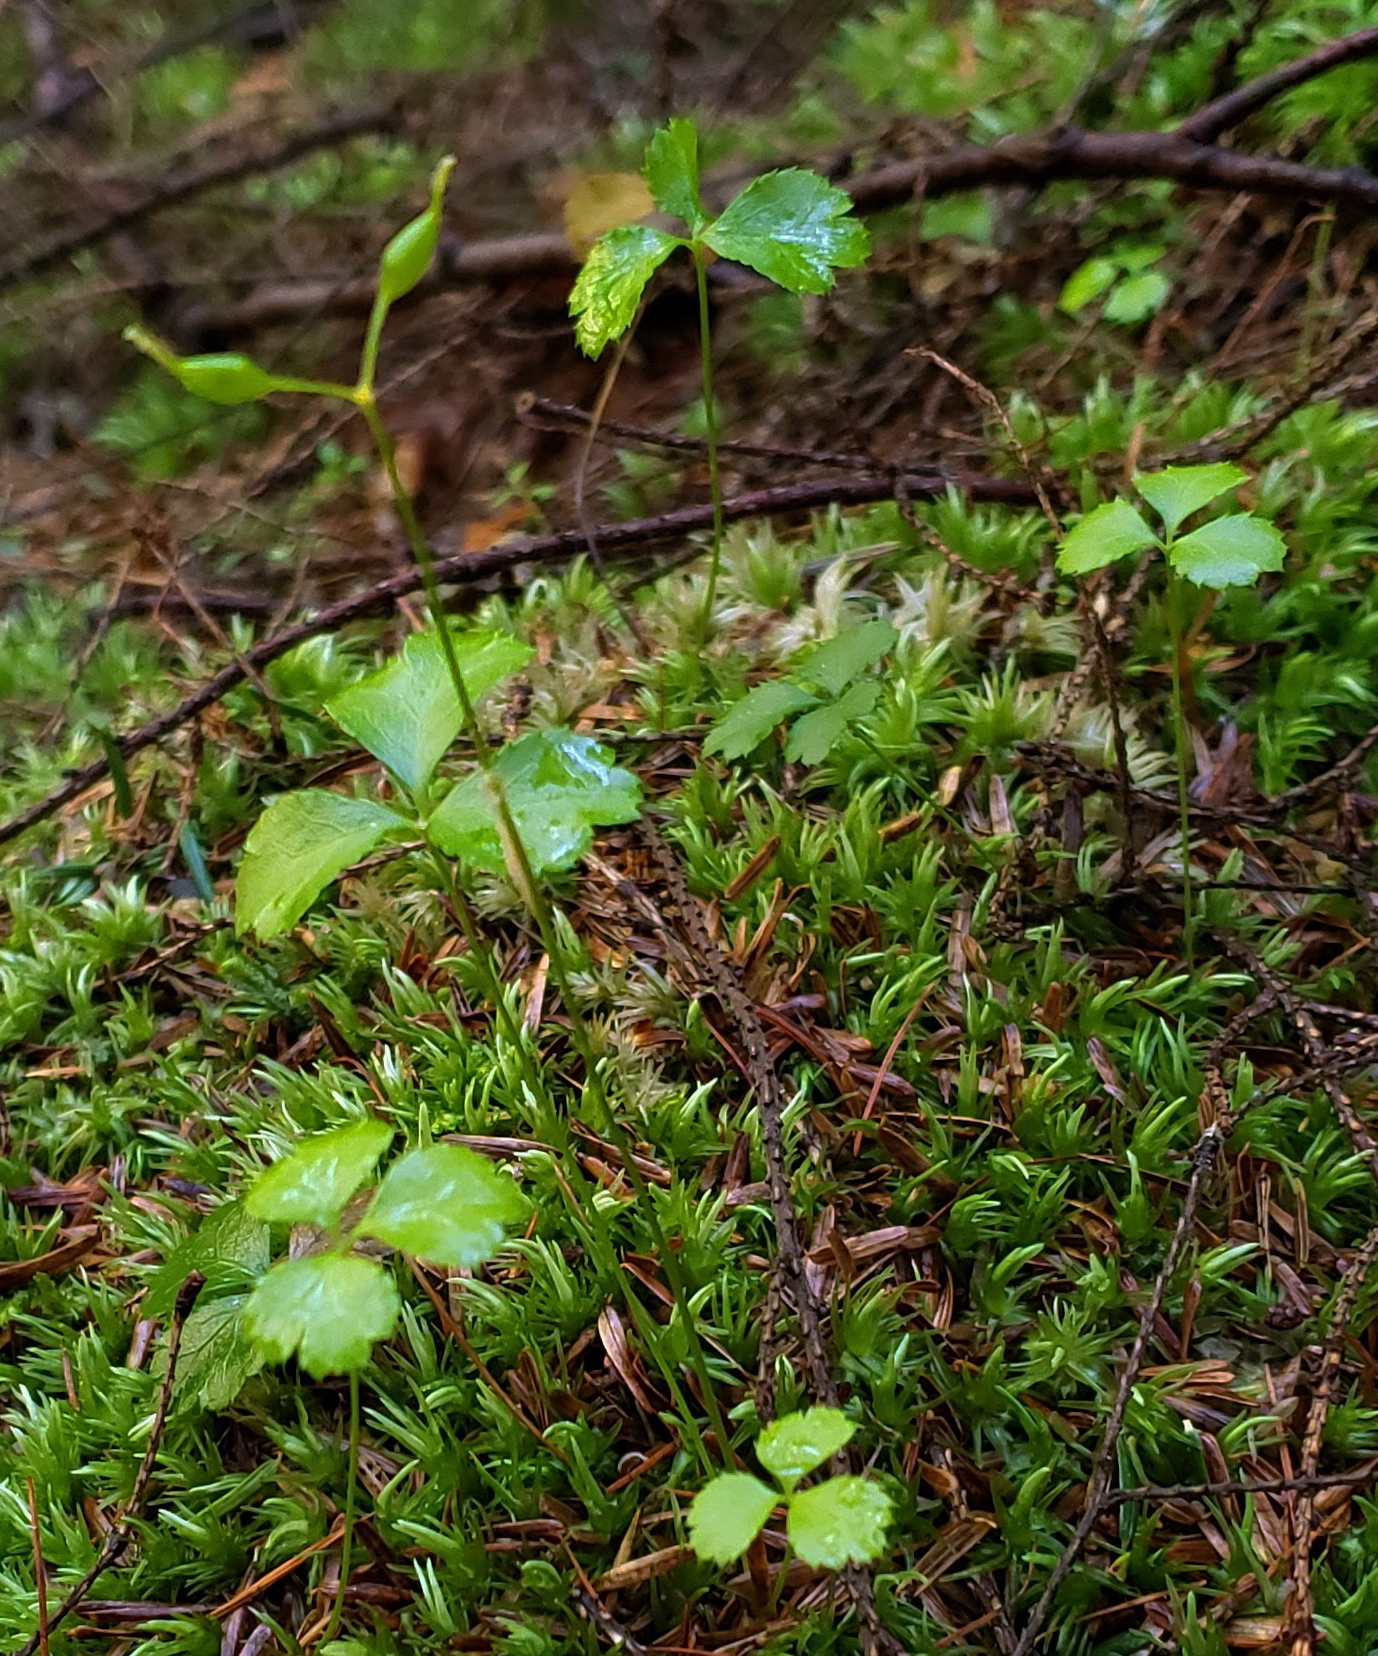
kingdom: Plantae
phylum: Tracheophyta
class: Magnoliopsida
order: Ranunculales
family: Ranunculaceae
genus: Coptis
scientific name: Coptis trifolia
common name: Canker-root
